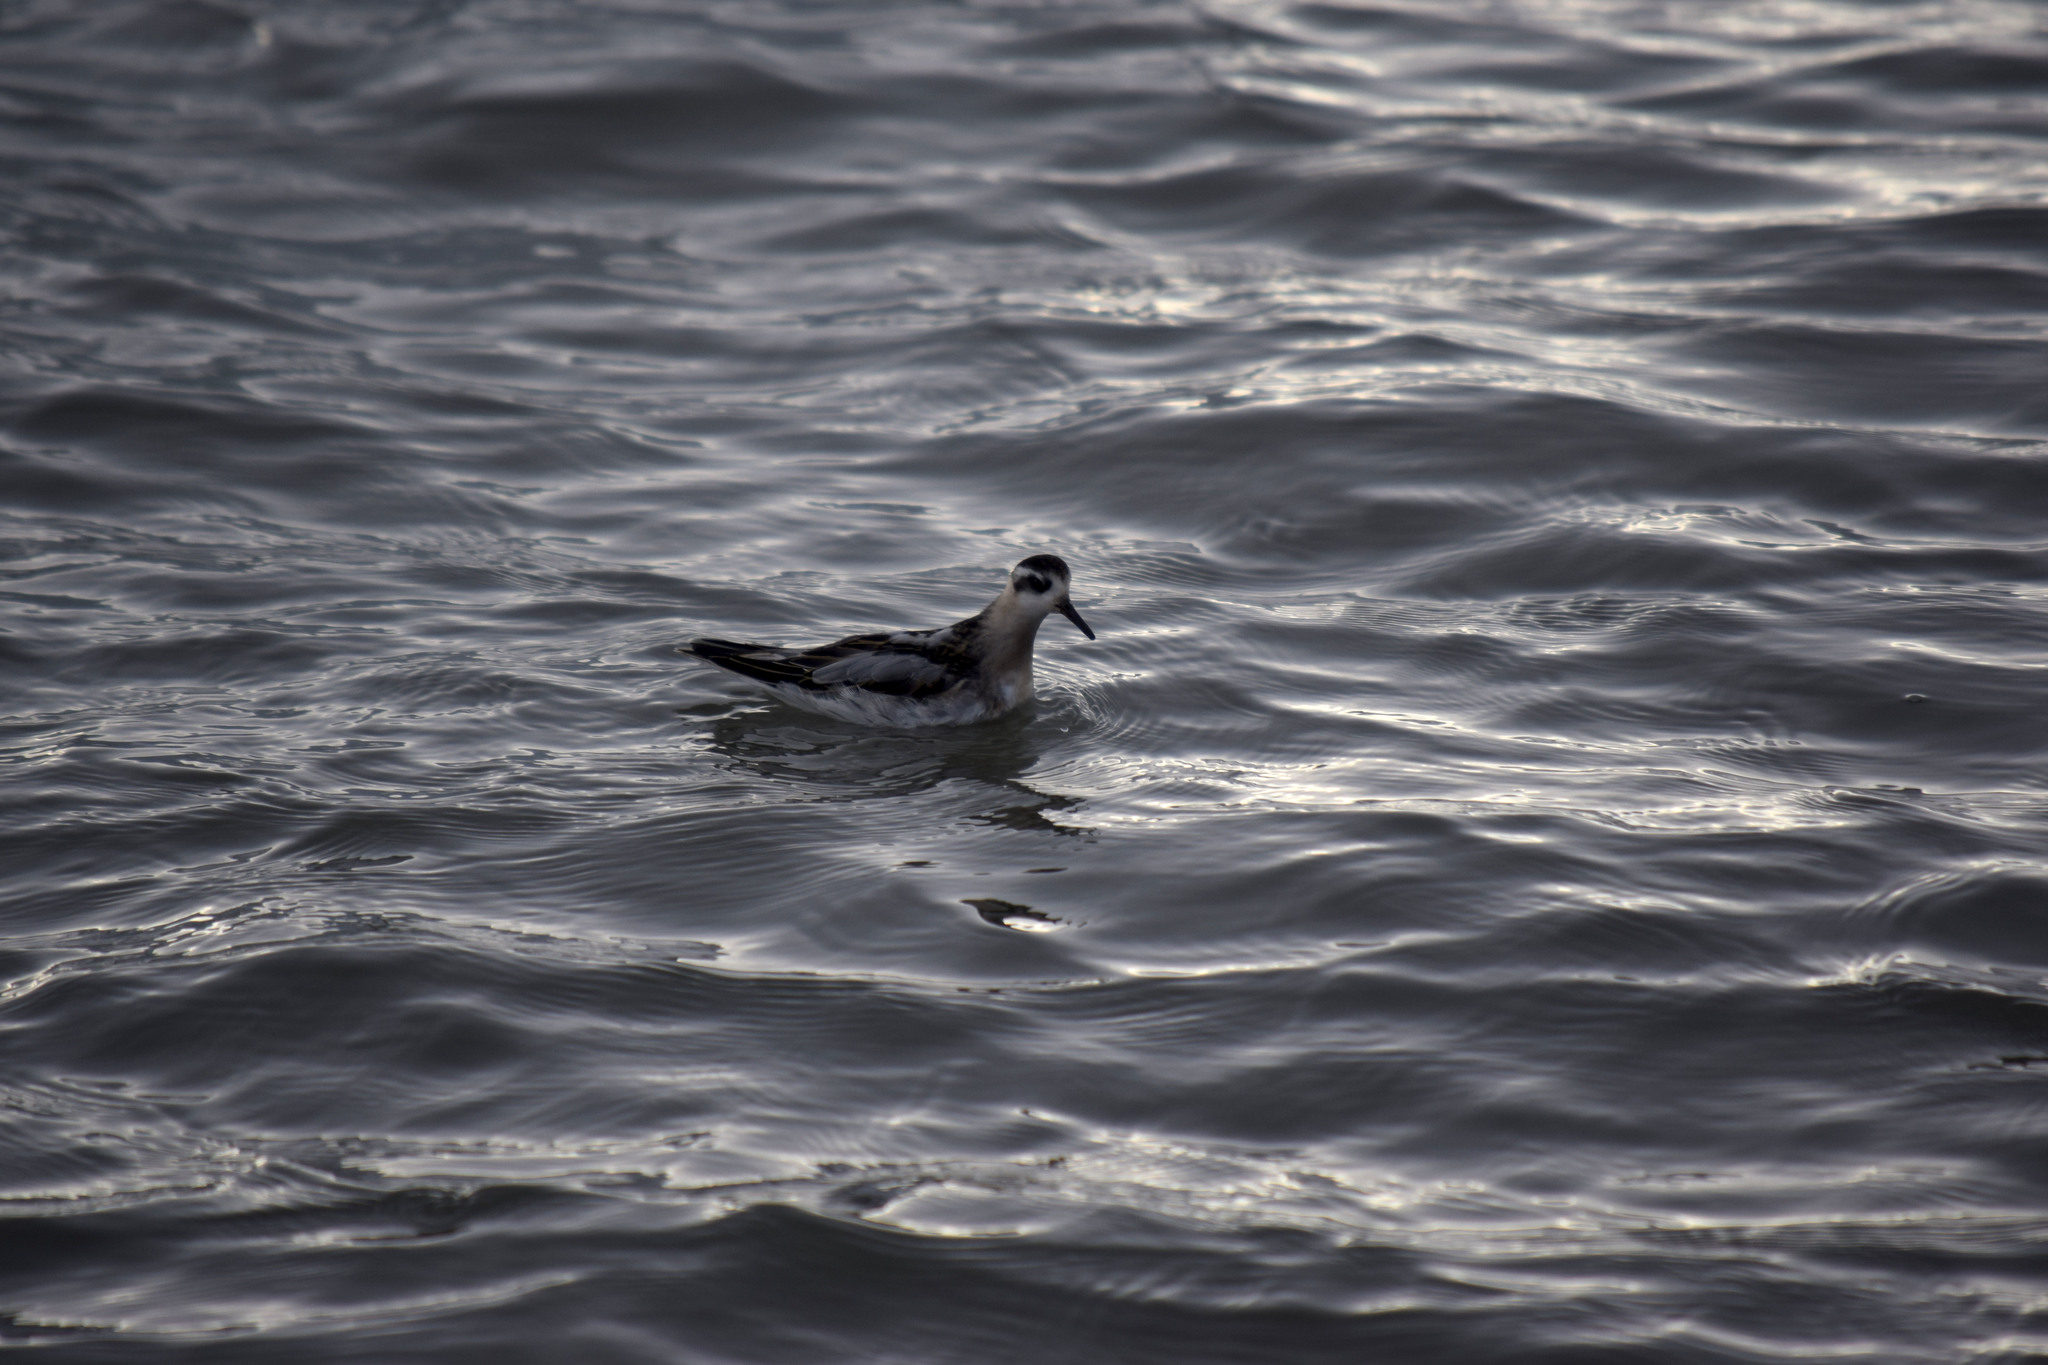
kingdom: Animalia
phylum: Chordata
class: Aves
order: Charadriiformes
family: Scolopacidae
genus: Phalaropus
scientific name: Phalaropus fulicarius
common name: Red phalarope
